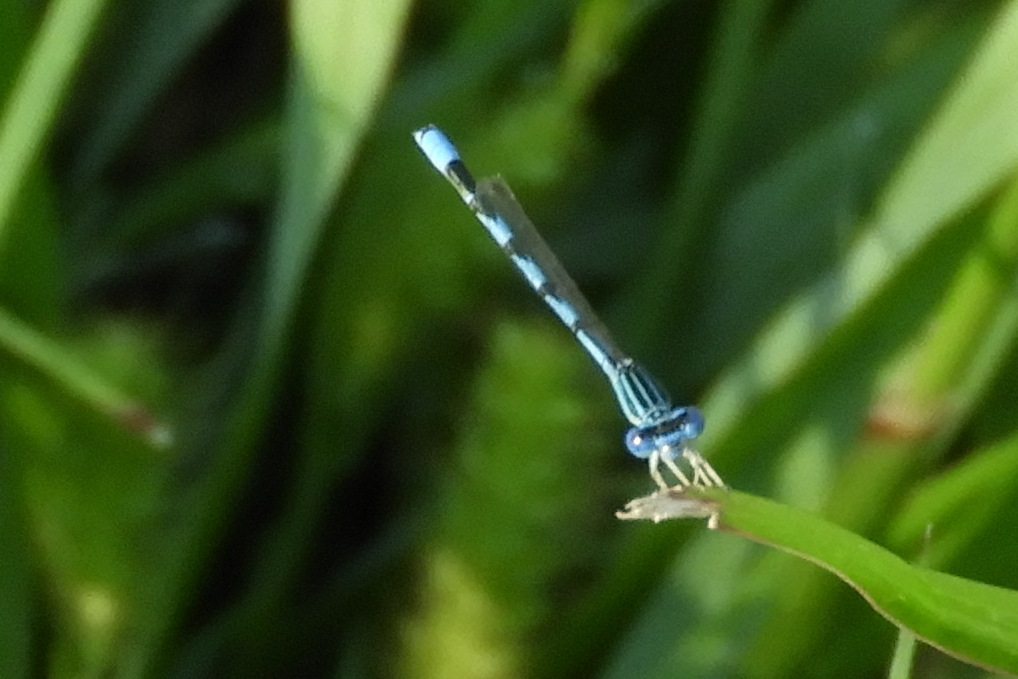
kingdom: Animalia
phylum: Arthropoda
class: Insecta
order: Odonata
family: Coenagrionidae
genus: Enallagma
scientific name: Enallagma basidens
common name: Double-striped bluet
